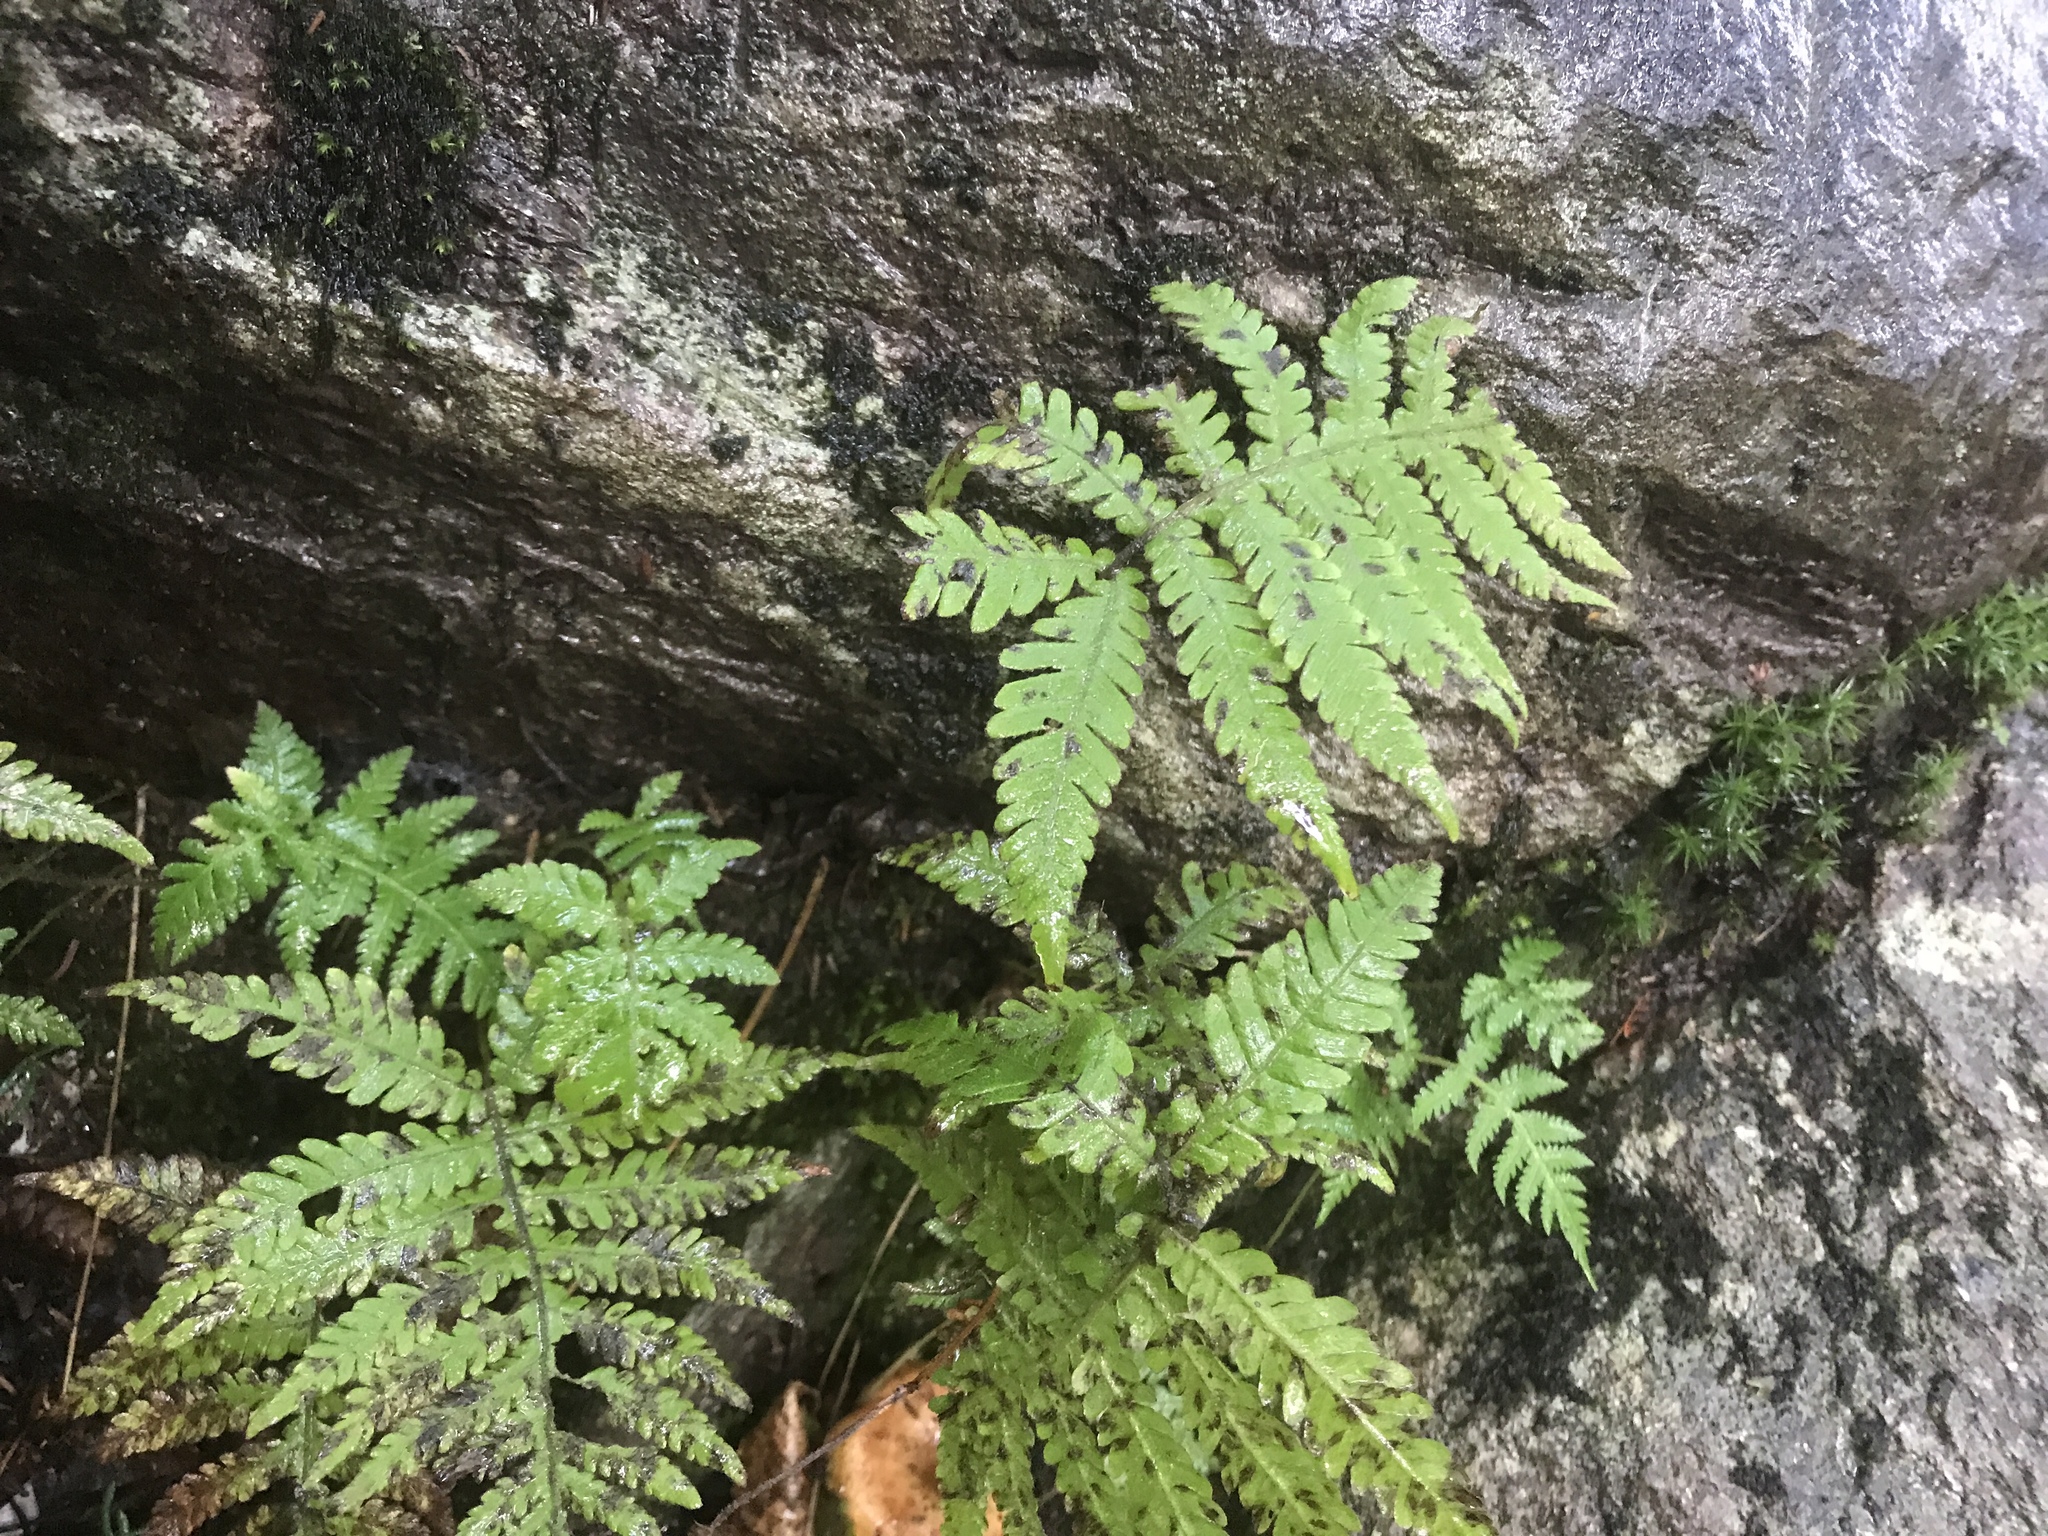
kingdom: Plantae
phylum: Tracheophyta
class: Polypodiopsida
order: Polypodiales
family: Thelypteridaceae
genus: Phegopteris
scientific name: Phegopteris connectilis
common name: Beech fern
